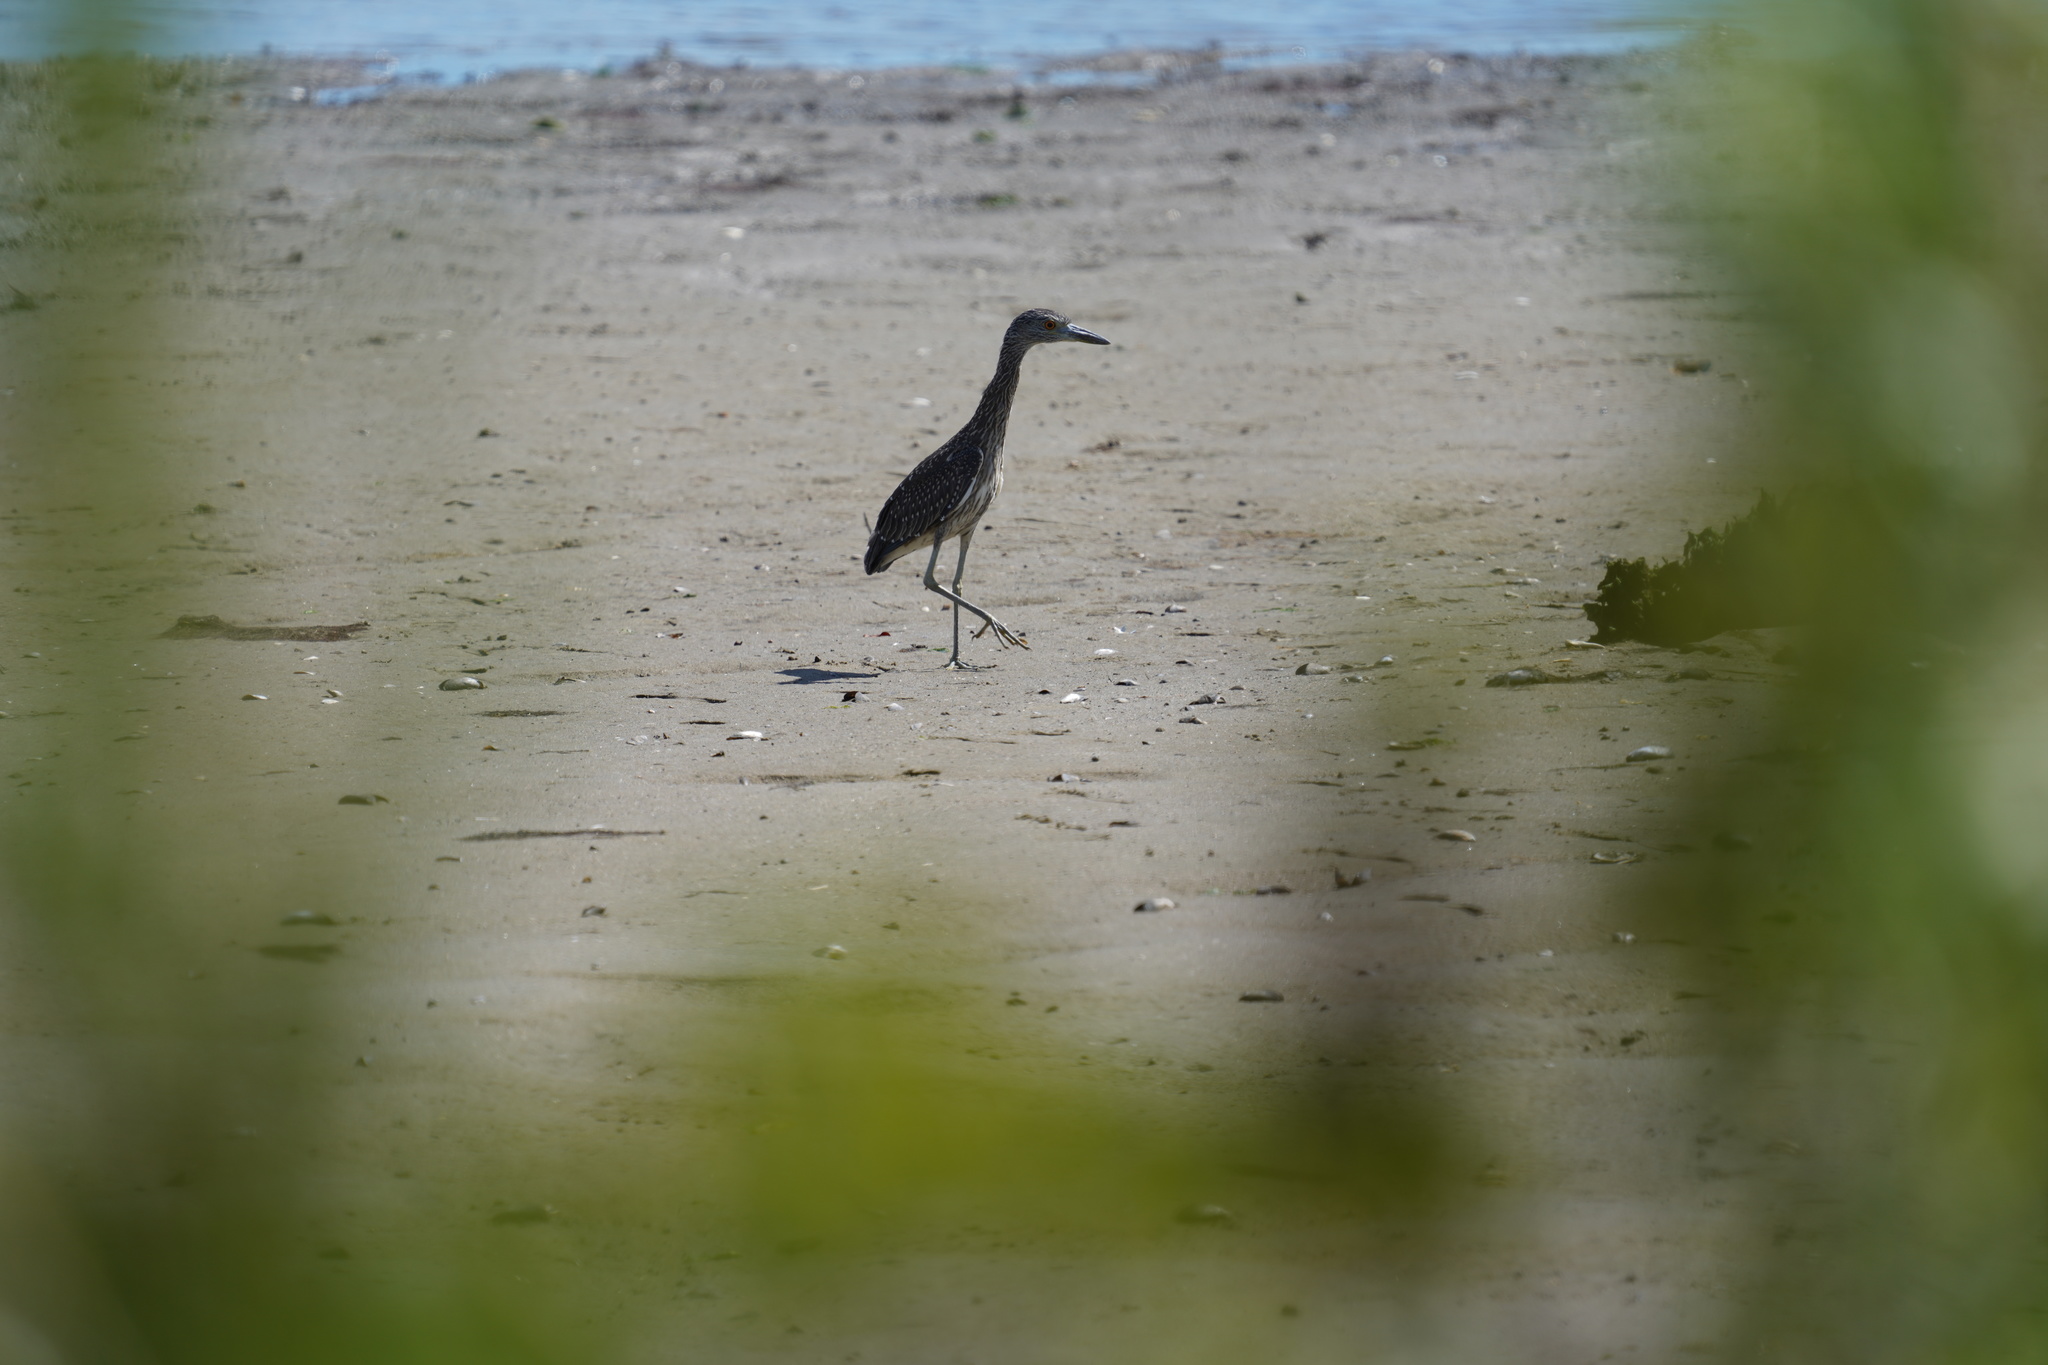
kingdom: Animalia
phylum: Chordata
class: Aves
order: Pelecaniformes
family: Ardeidae
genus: Nyctanassa
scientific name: Nyctanassa violacea
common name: Yellow-crowned night heron
